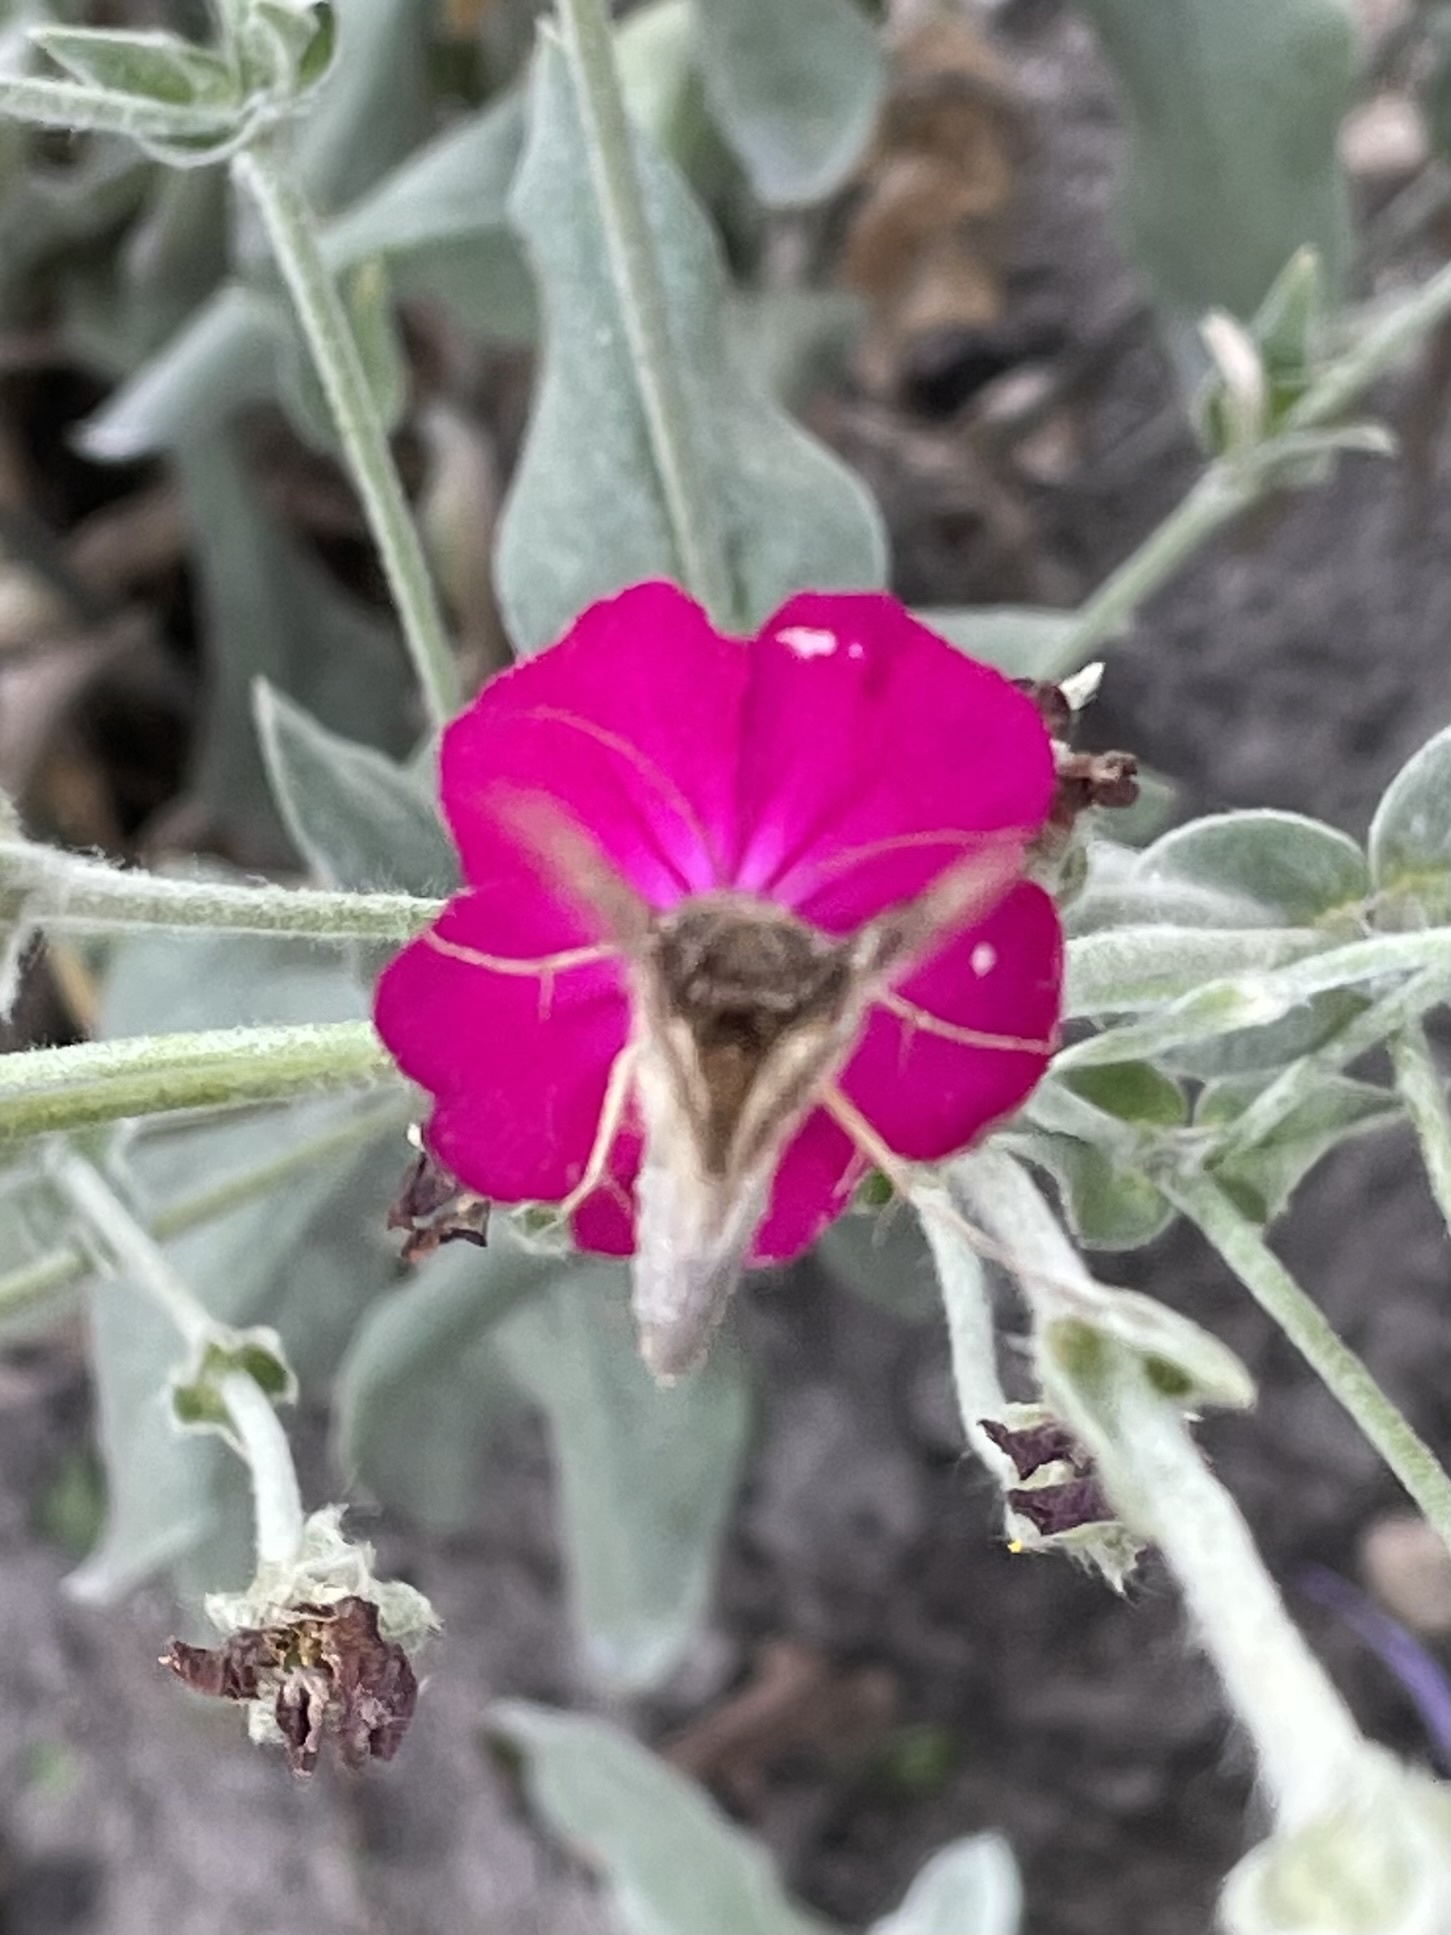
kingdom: Animalia
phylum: Arthropoda
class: Insecta
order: Lepidoptera
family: Noctuidae
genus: Autographa
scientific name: Autographa gamma
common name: Silver y
